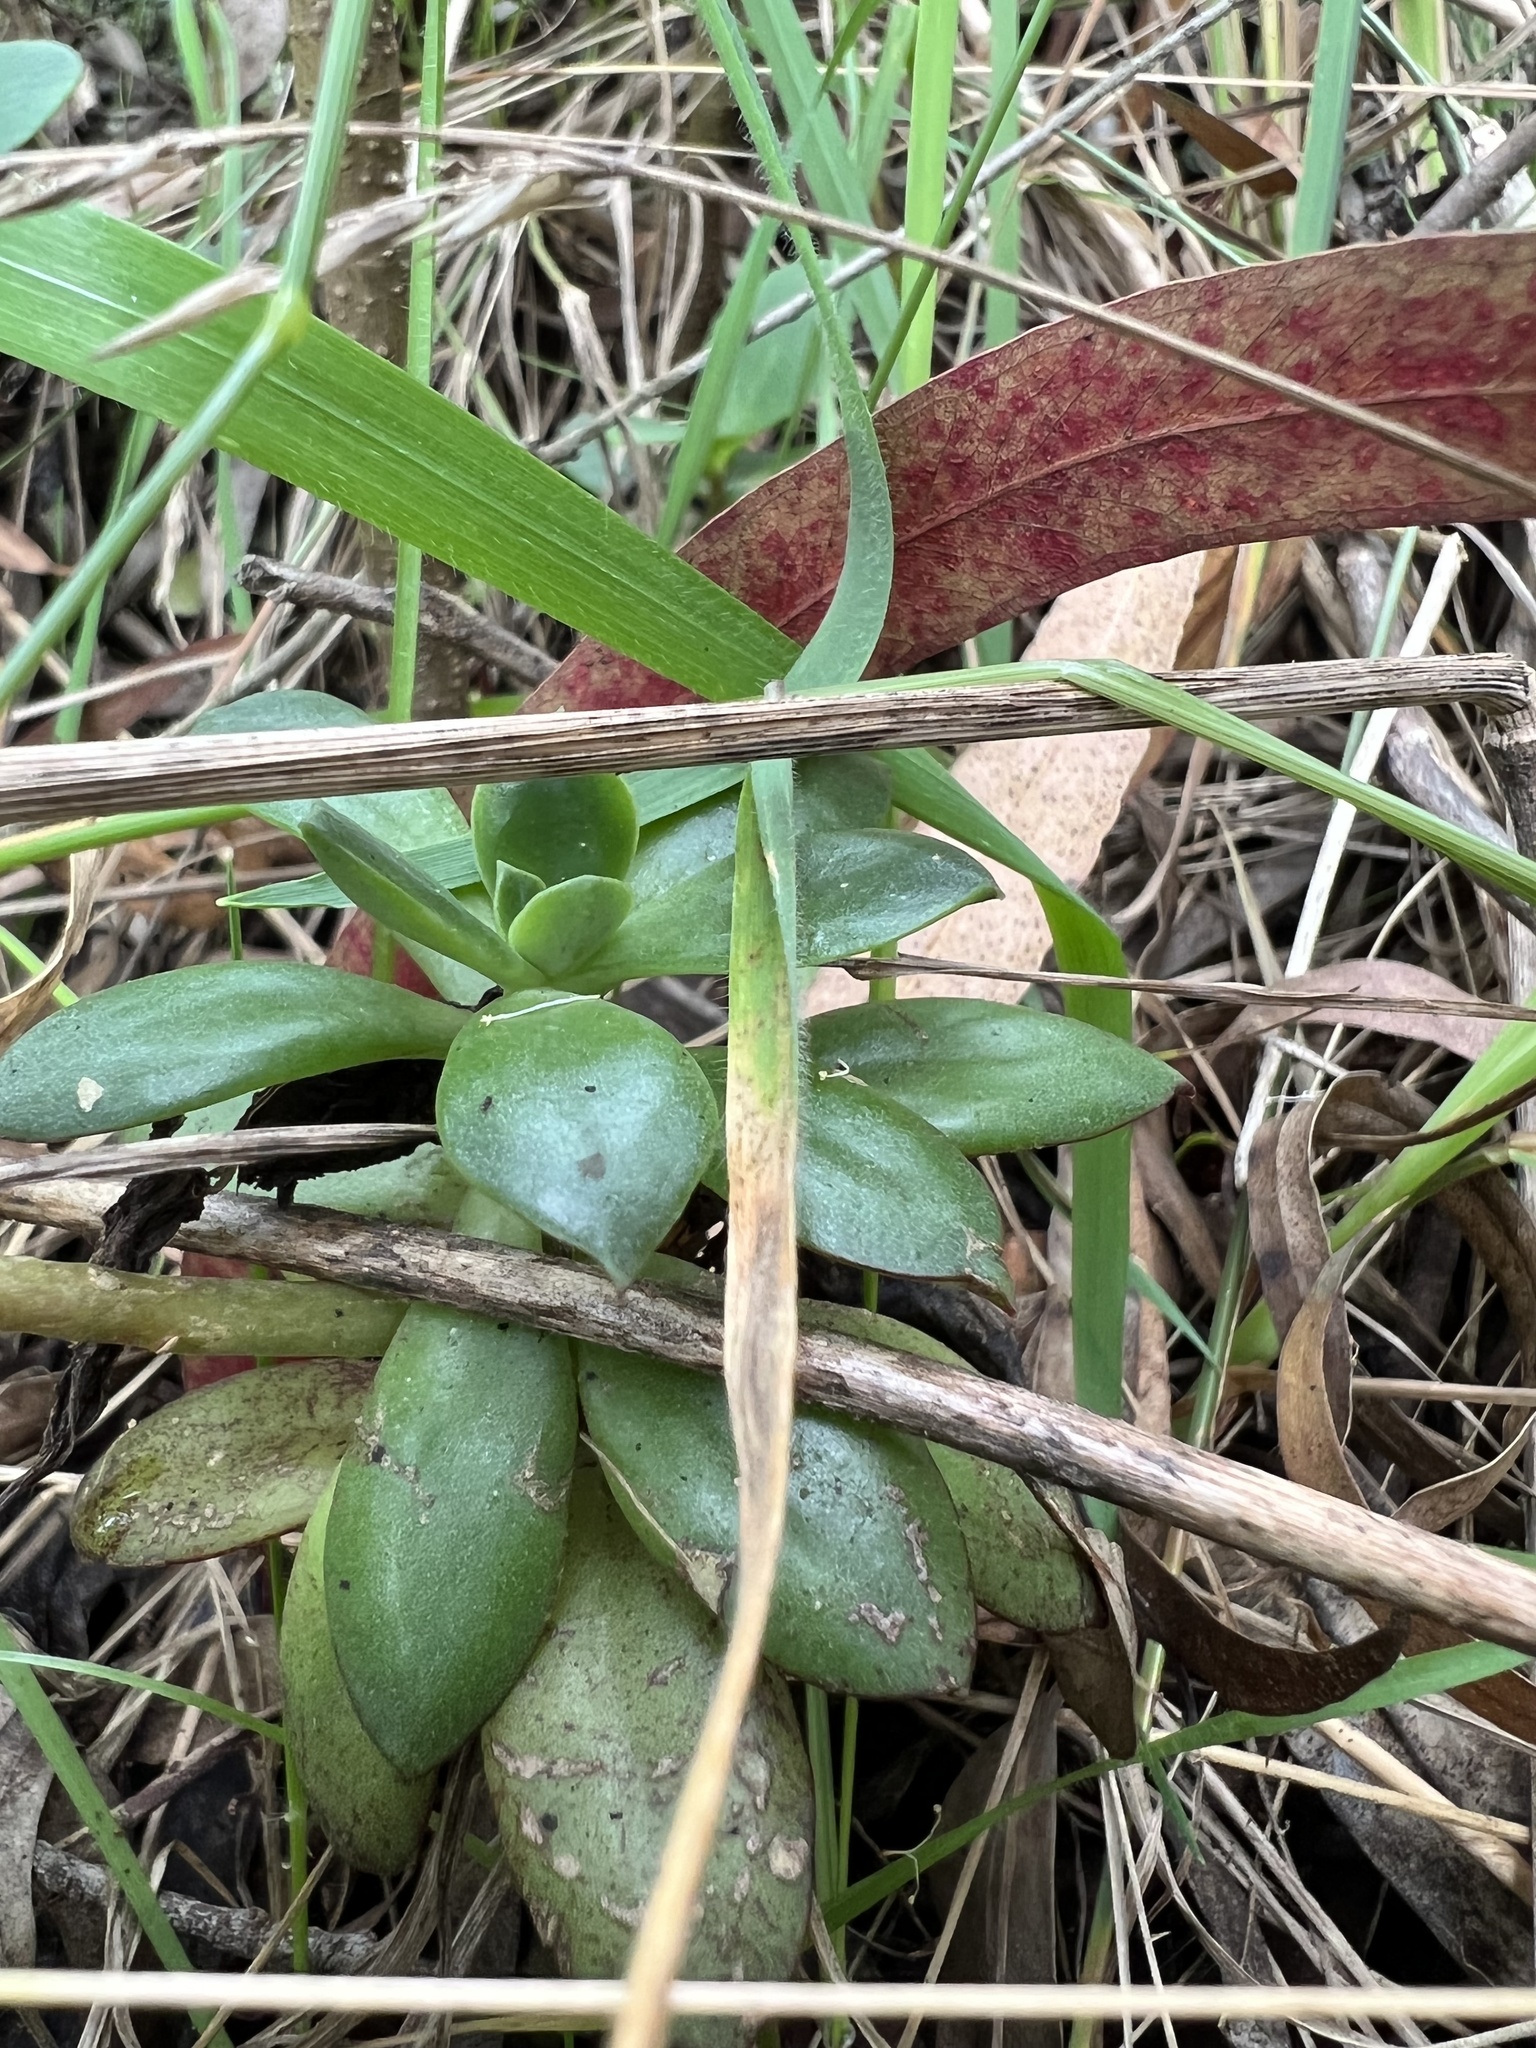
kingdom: Plantae
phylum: Tracheophyta
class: Magnoliopsida
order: Saxifragales
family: Crassulaceae
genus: Echeveria
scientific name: Echeveria bicolor
